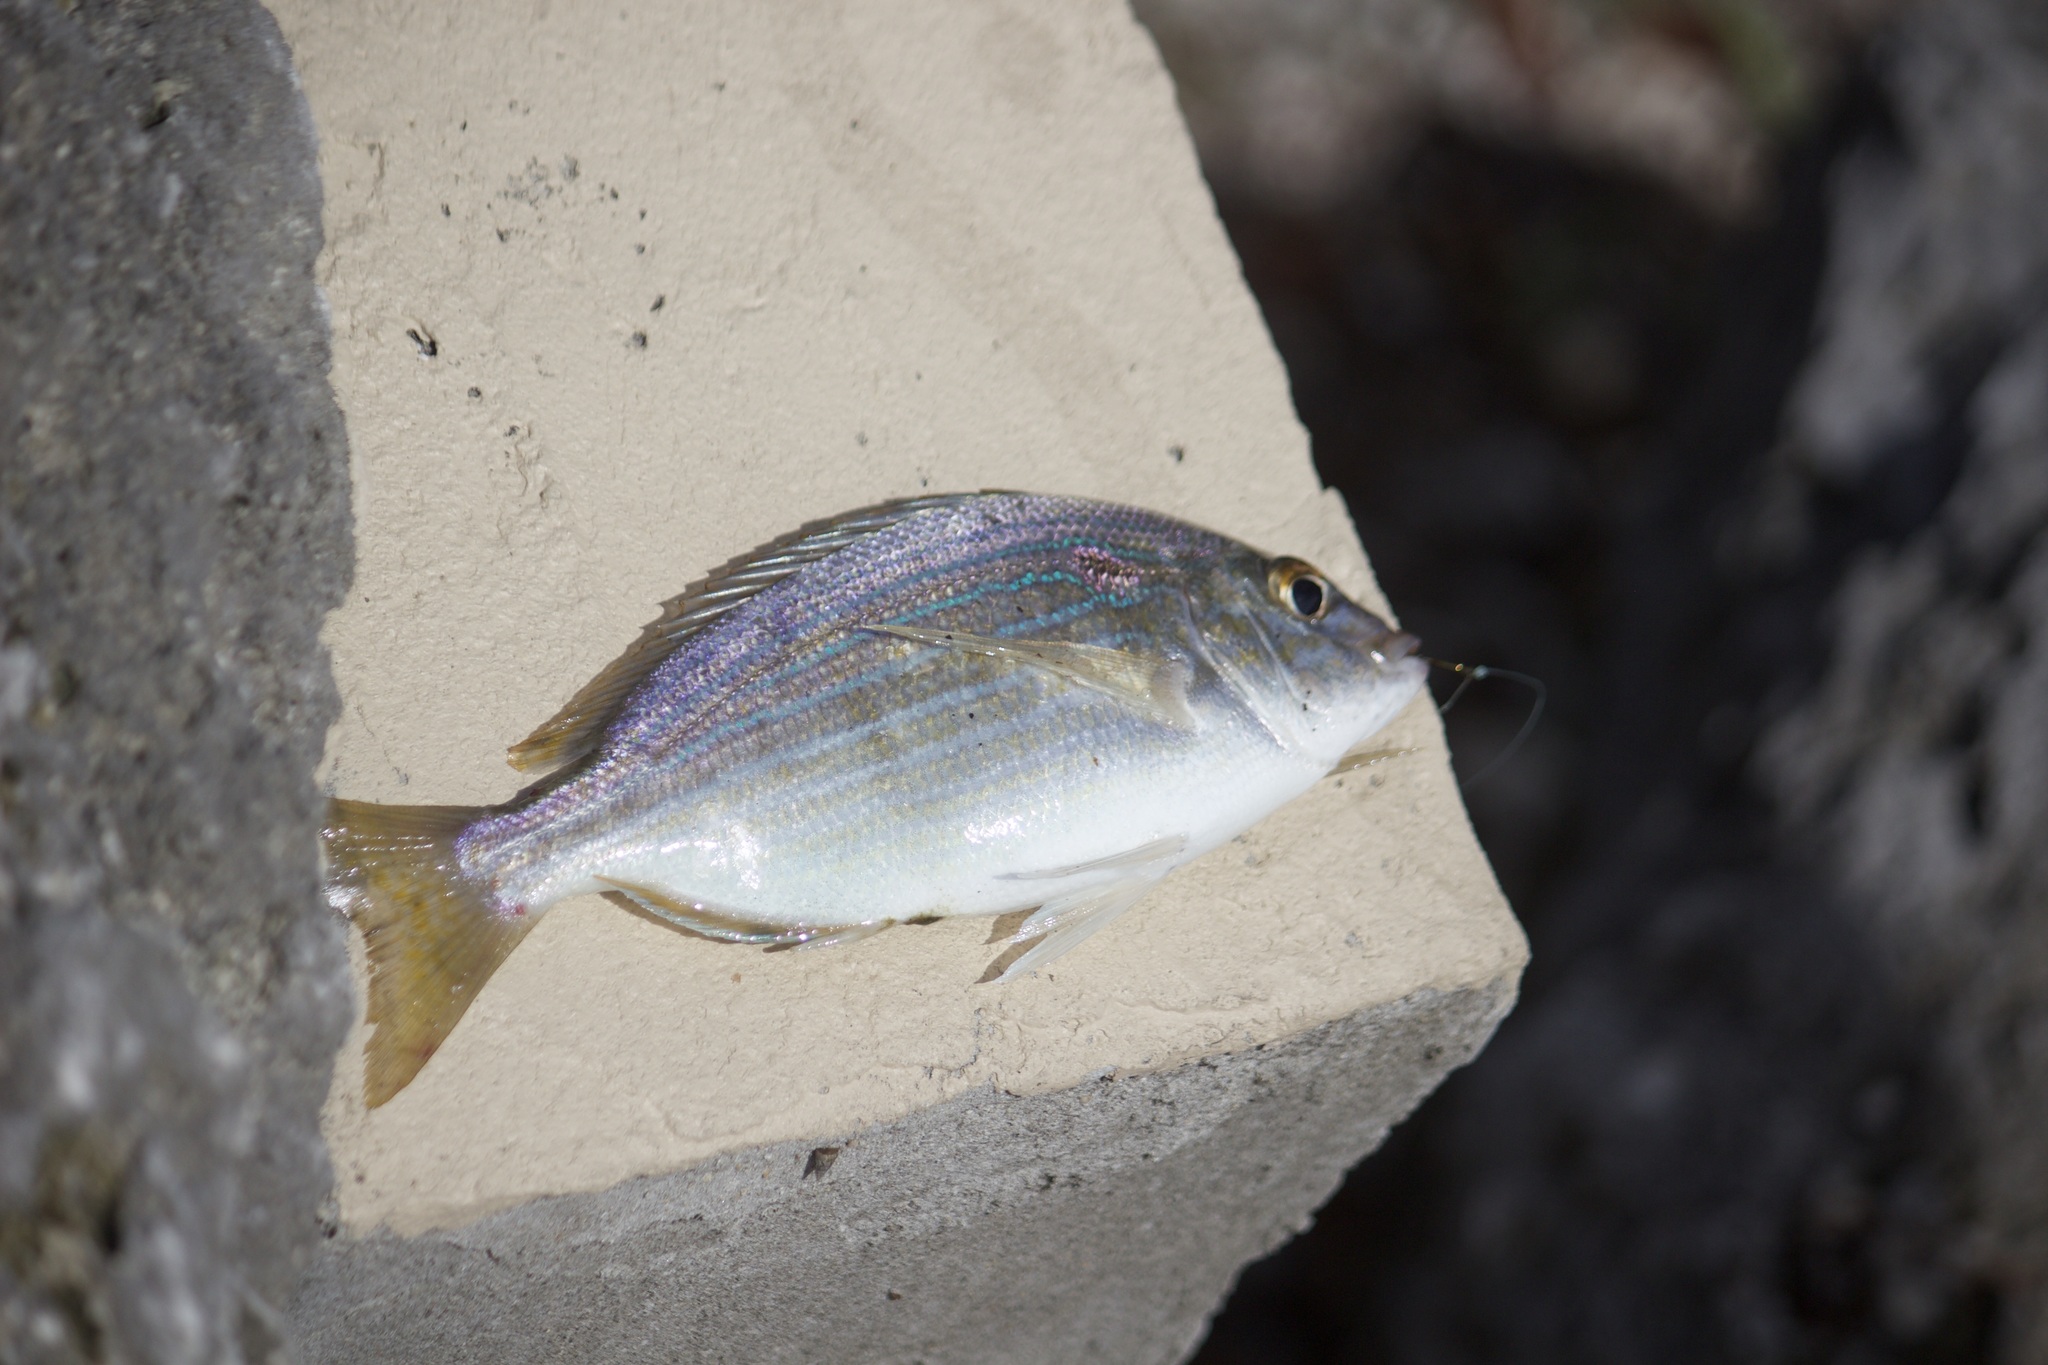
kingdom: Animalia
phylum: Chordata
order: Perciformes
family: Sparidae
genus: Lagodon
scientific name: Lagodon rhomboides
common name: Pinfish
